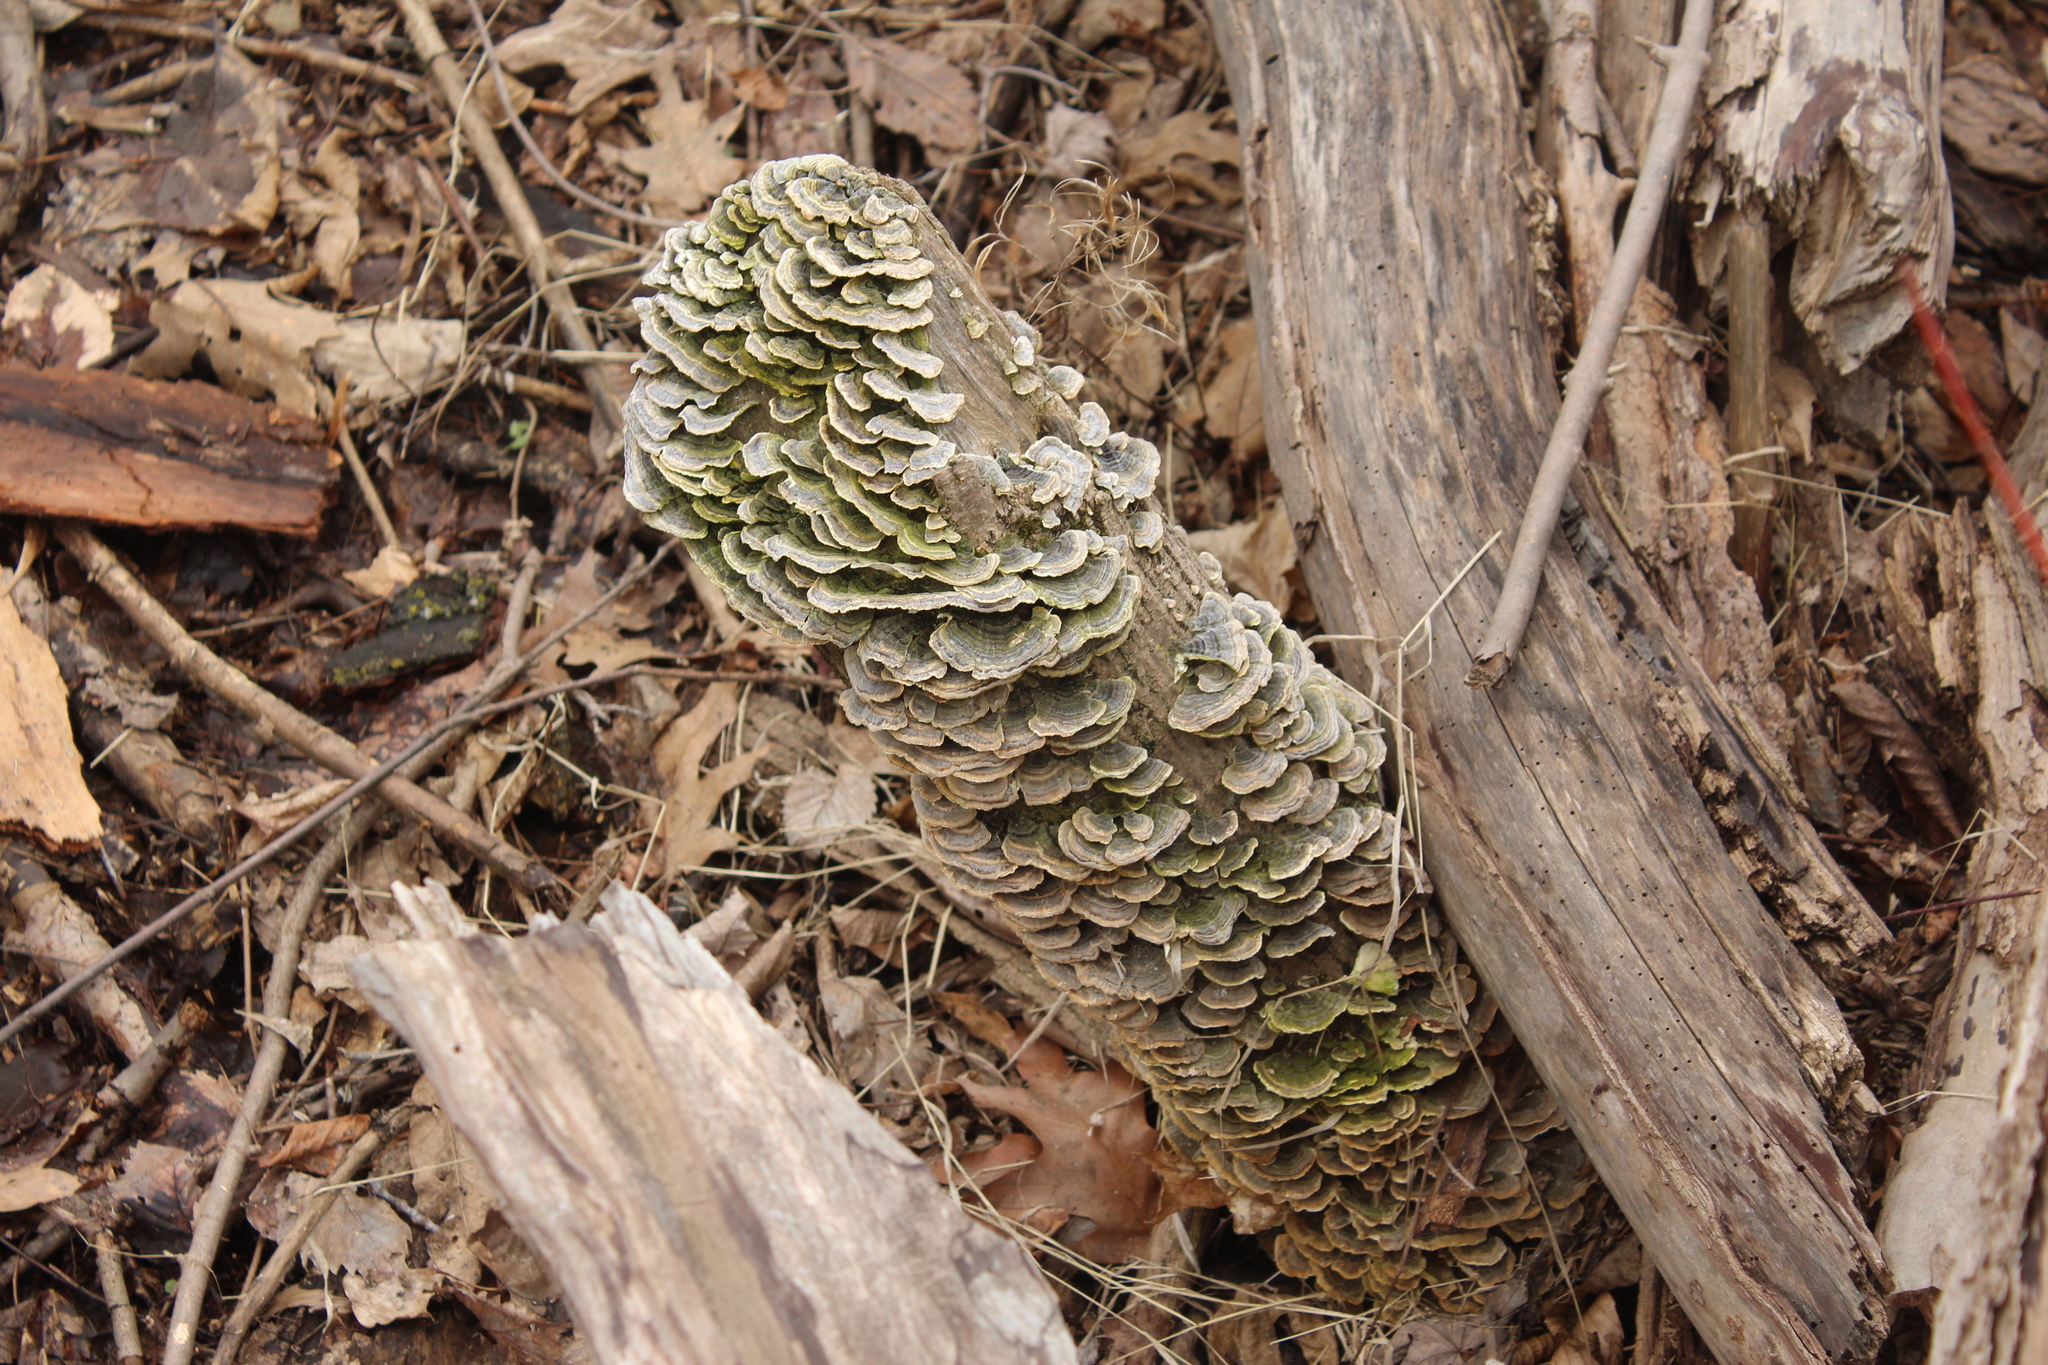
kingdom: Fungi
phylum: Basidiomycota
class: Agaricomycetes
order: Polyporales
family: Polyporaceae
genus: Trametes
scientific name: Trametes versicolor
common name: Turkeytail
